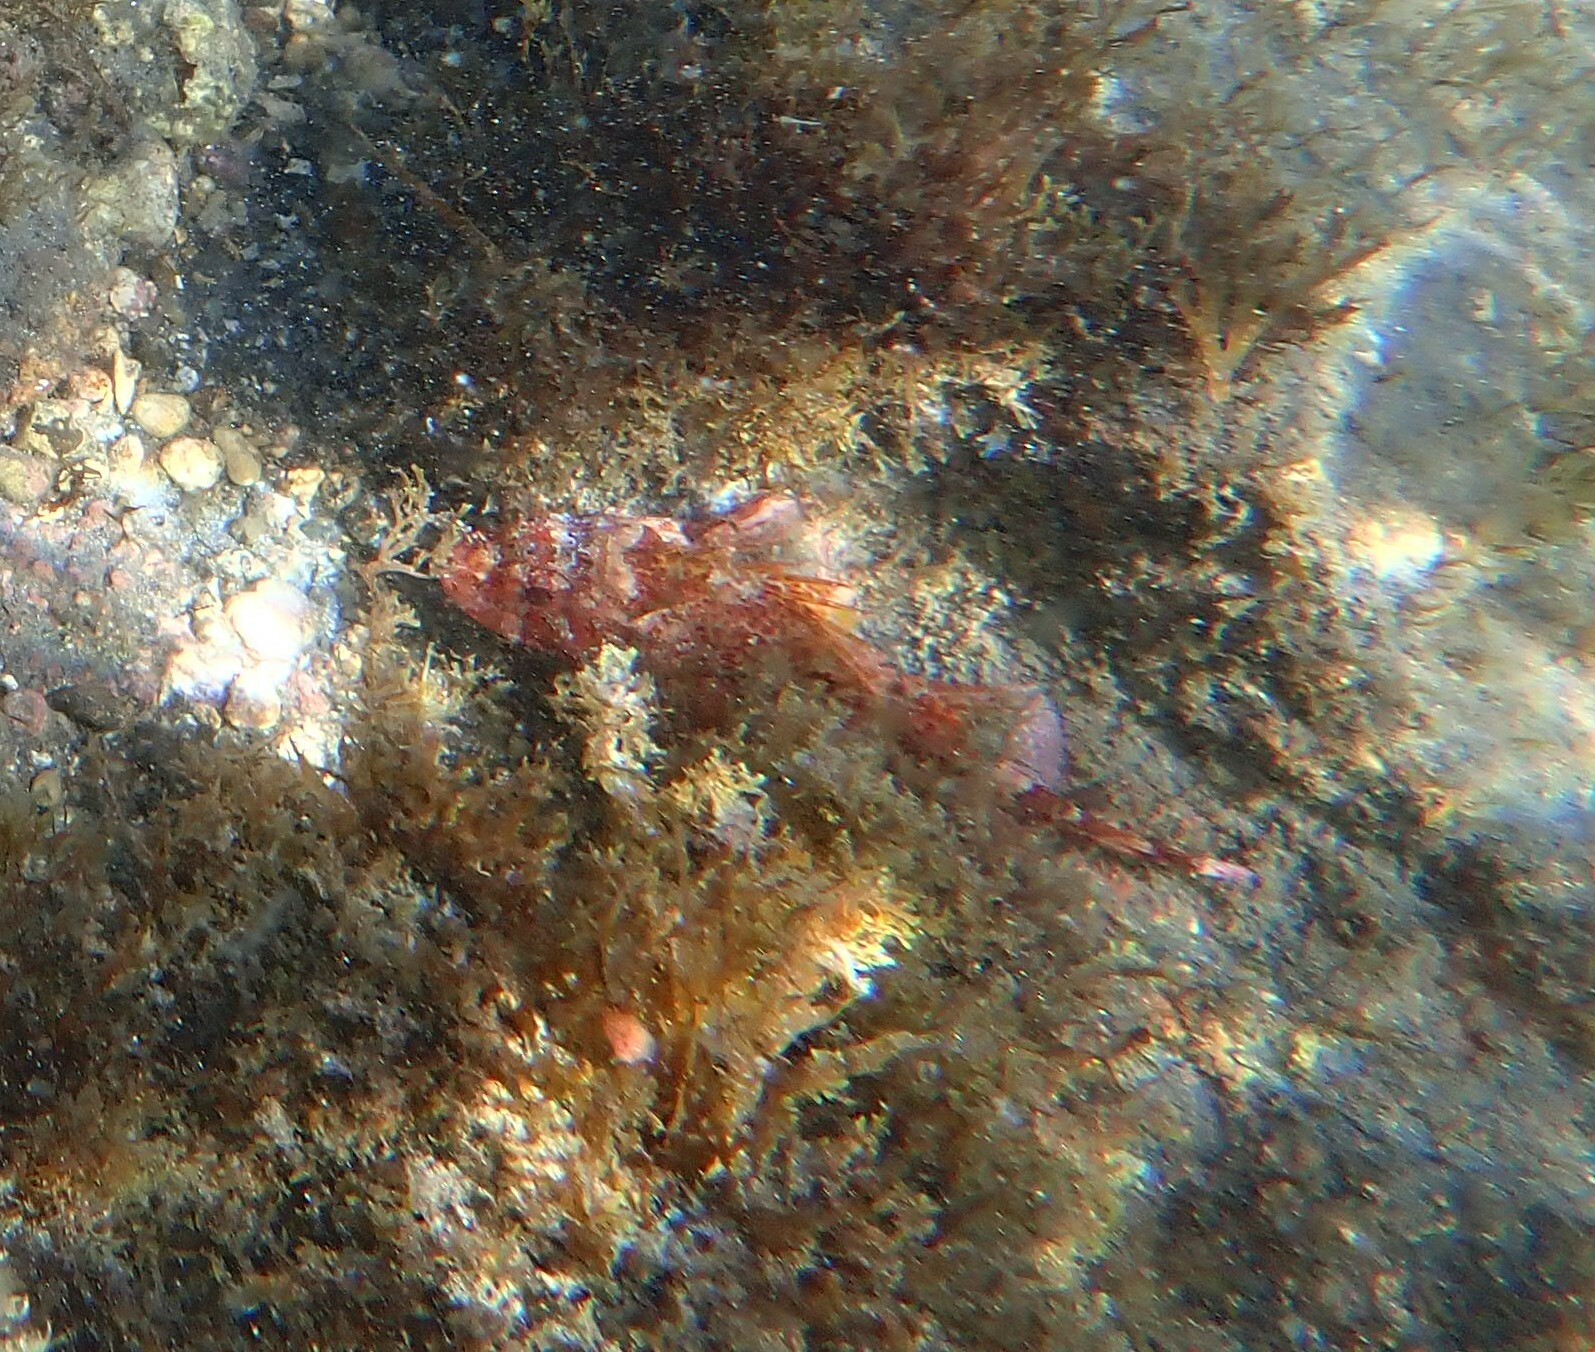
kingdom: Animalia
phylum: Chordata
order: Scorpaeniformes
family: Scorpaenidae
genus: Scorpaena
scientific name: Scorpaena maderensis
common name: Madeira rockfish
